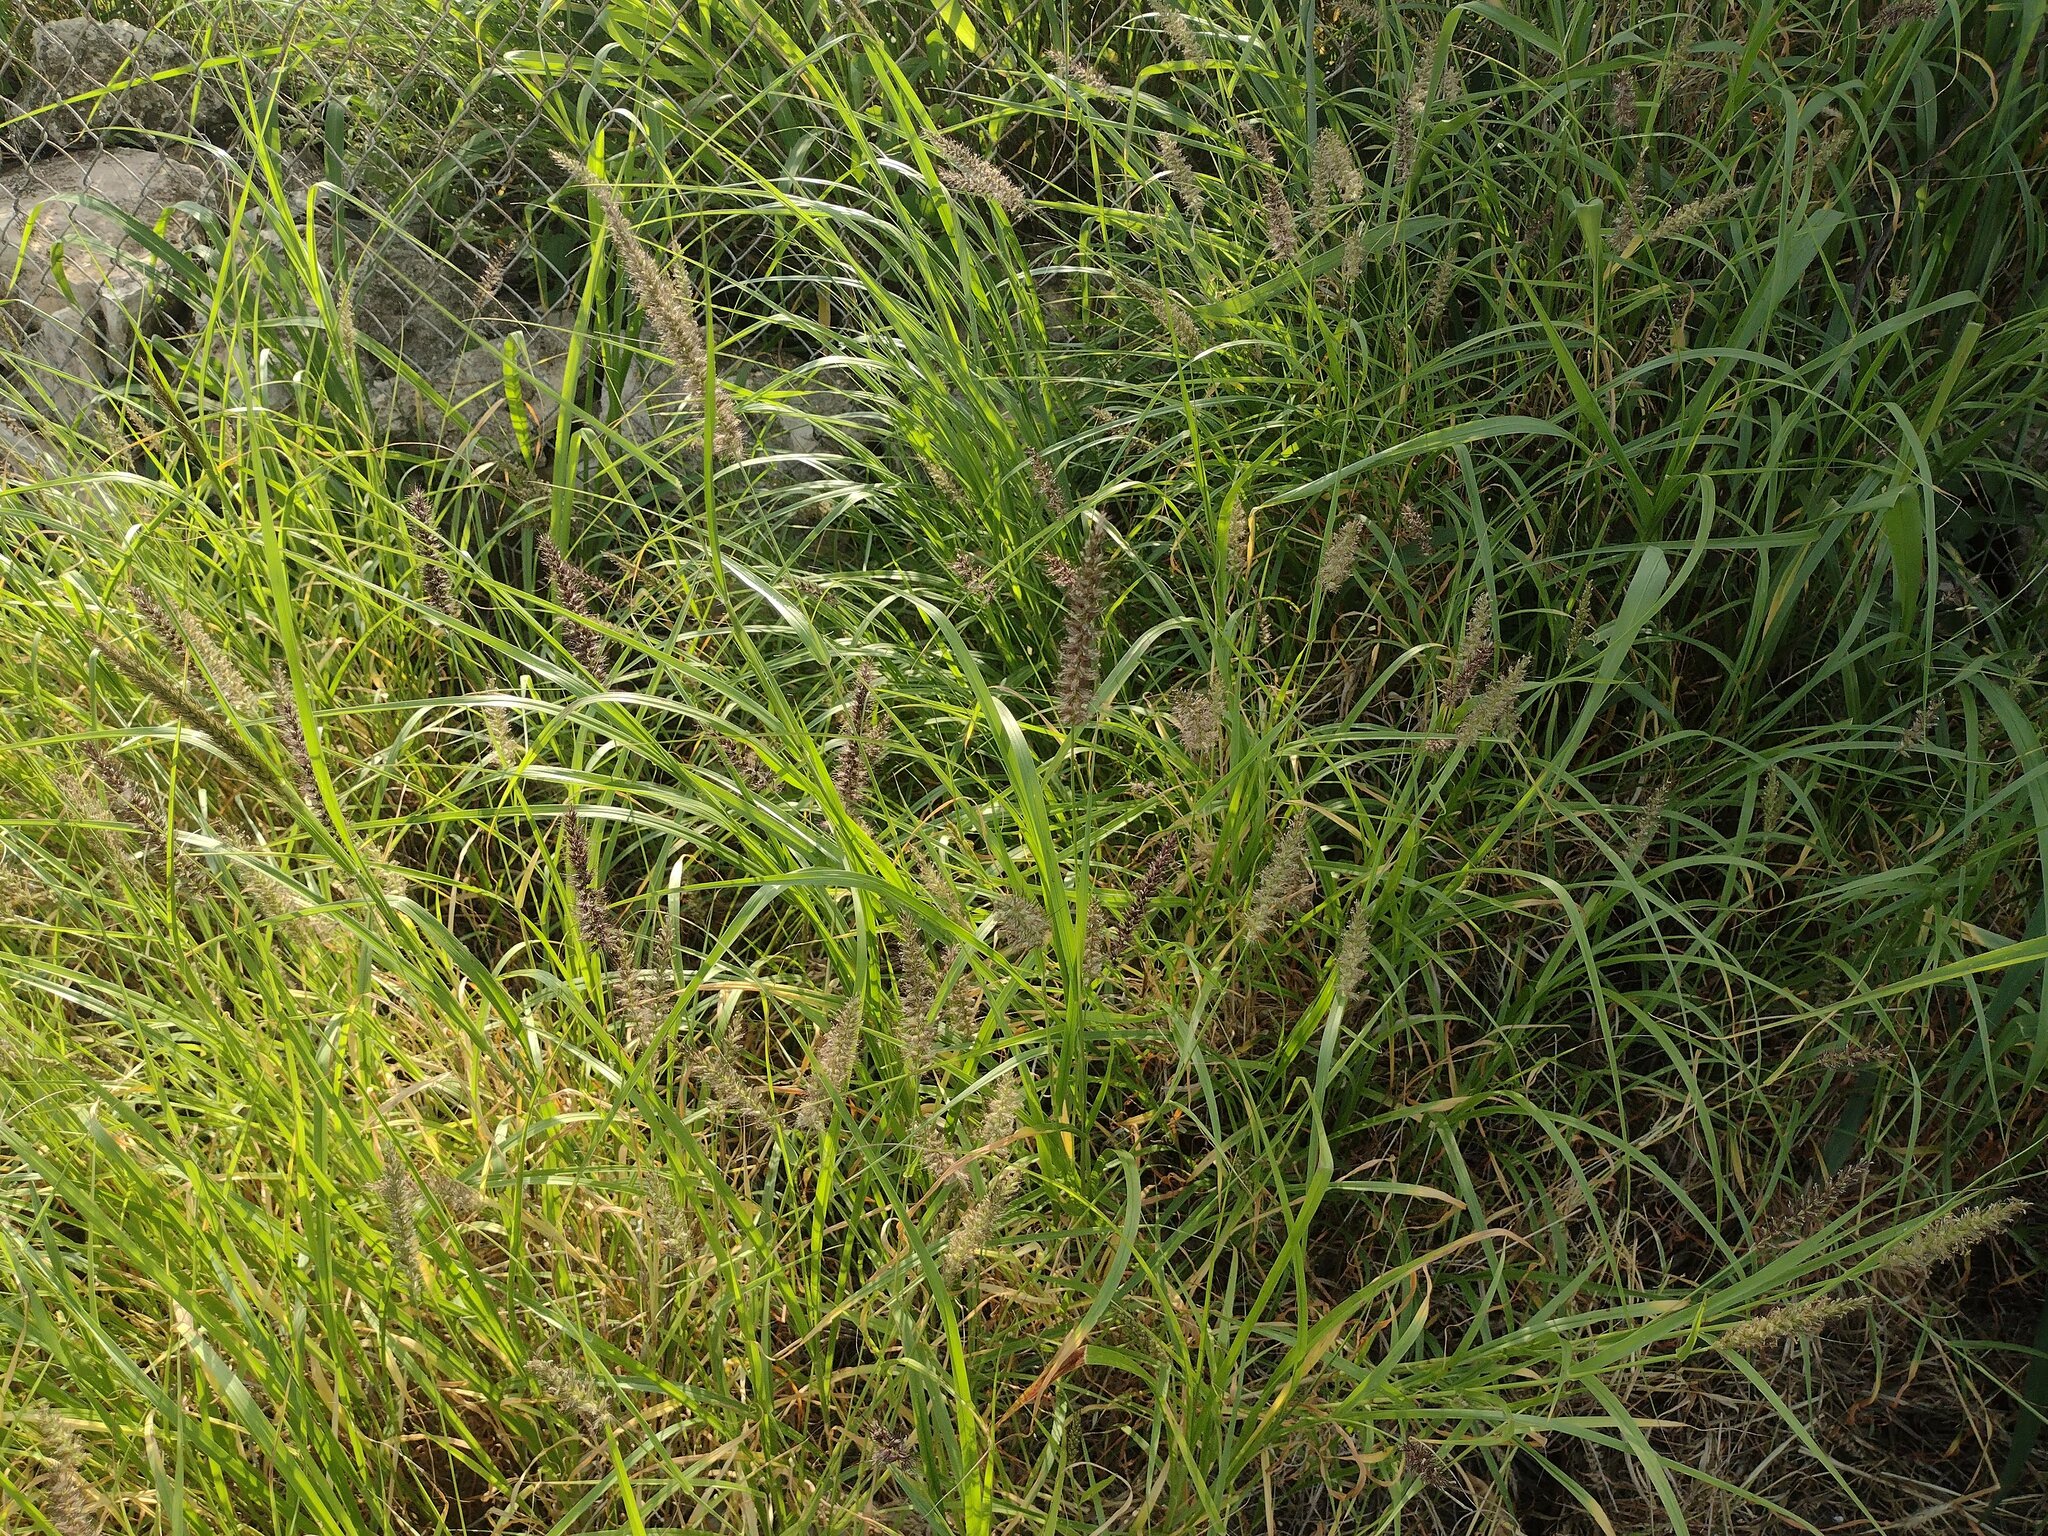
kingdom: Plantae
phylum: Tracheophyta
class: Liliopsida
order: Poales
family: Poaceae
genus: Cenchrus
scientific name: Cenchrus ciliaris
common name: Buffelgrass
